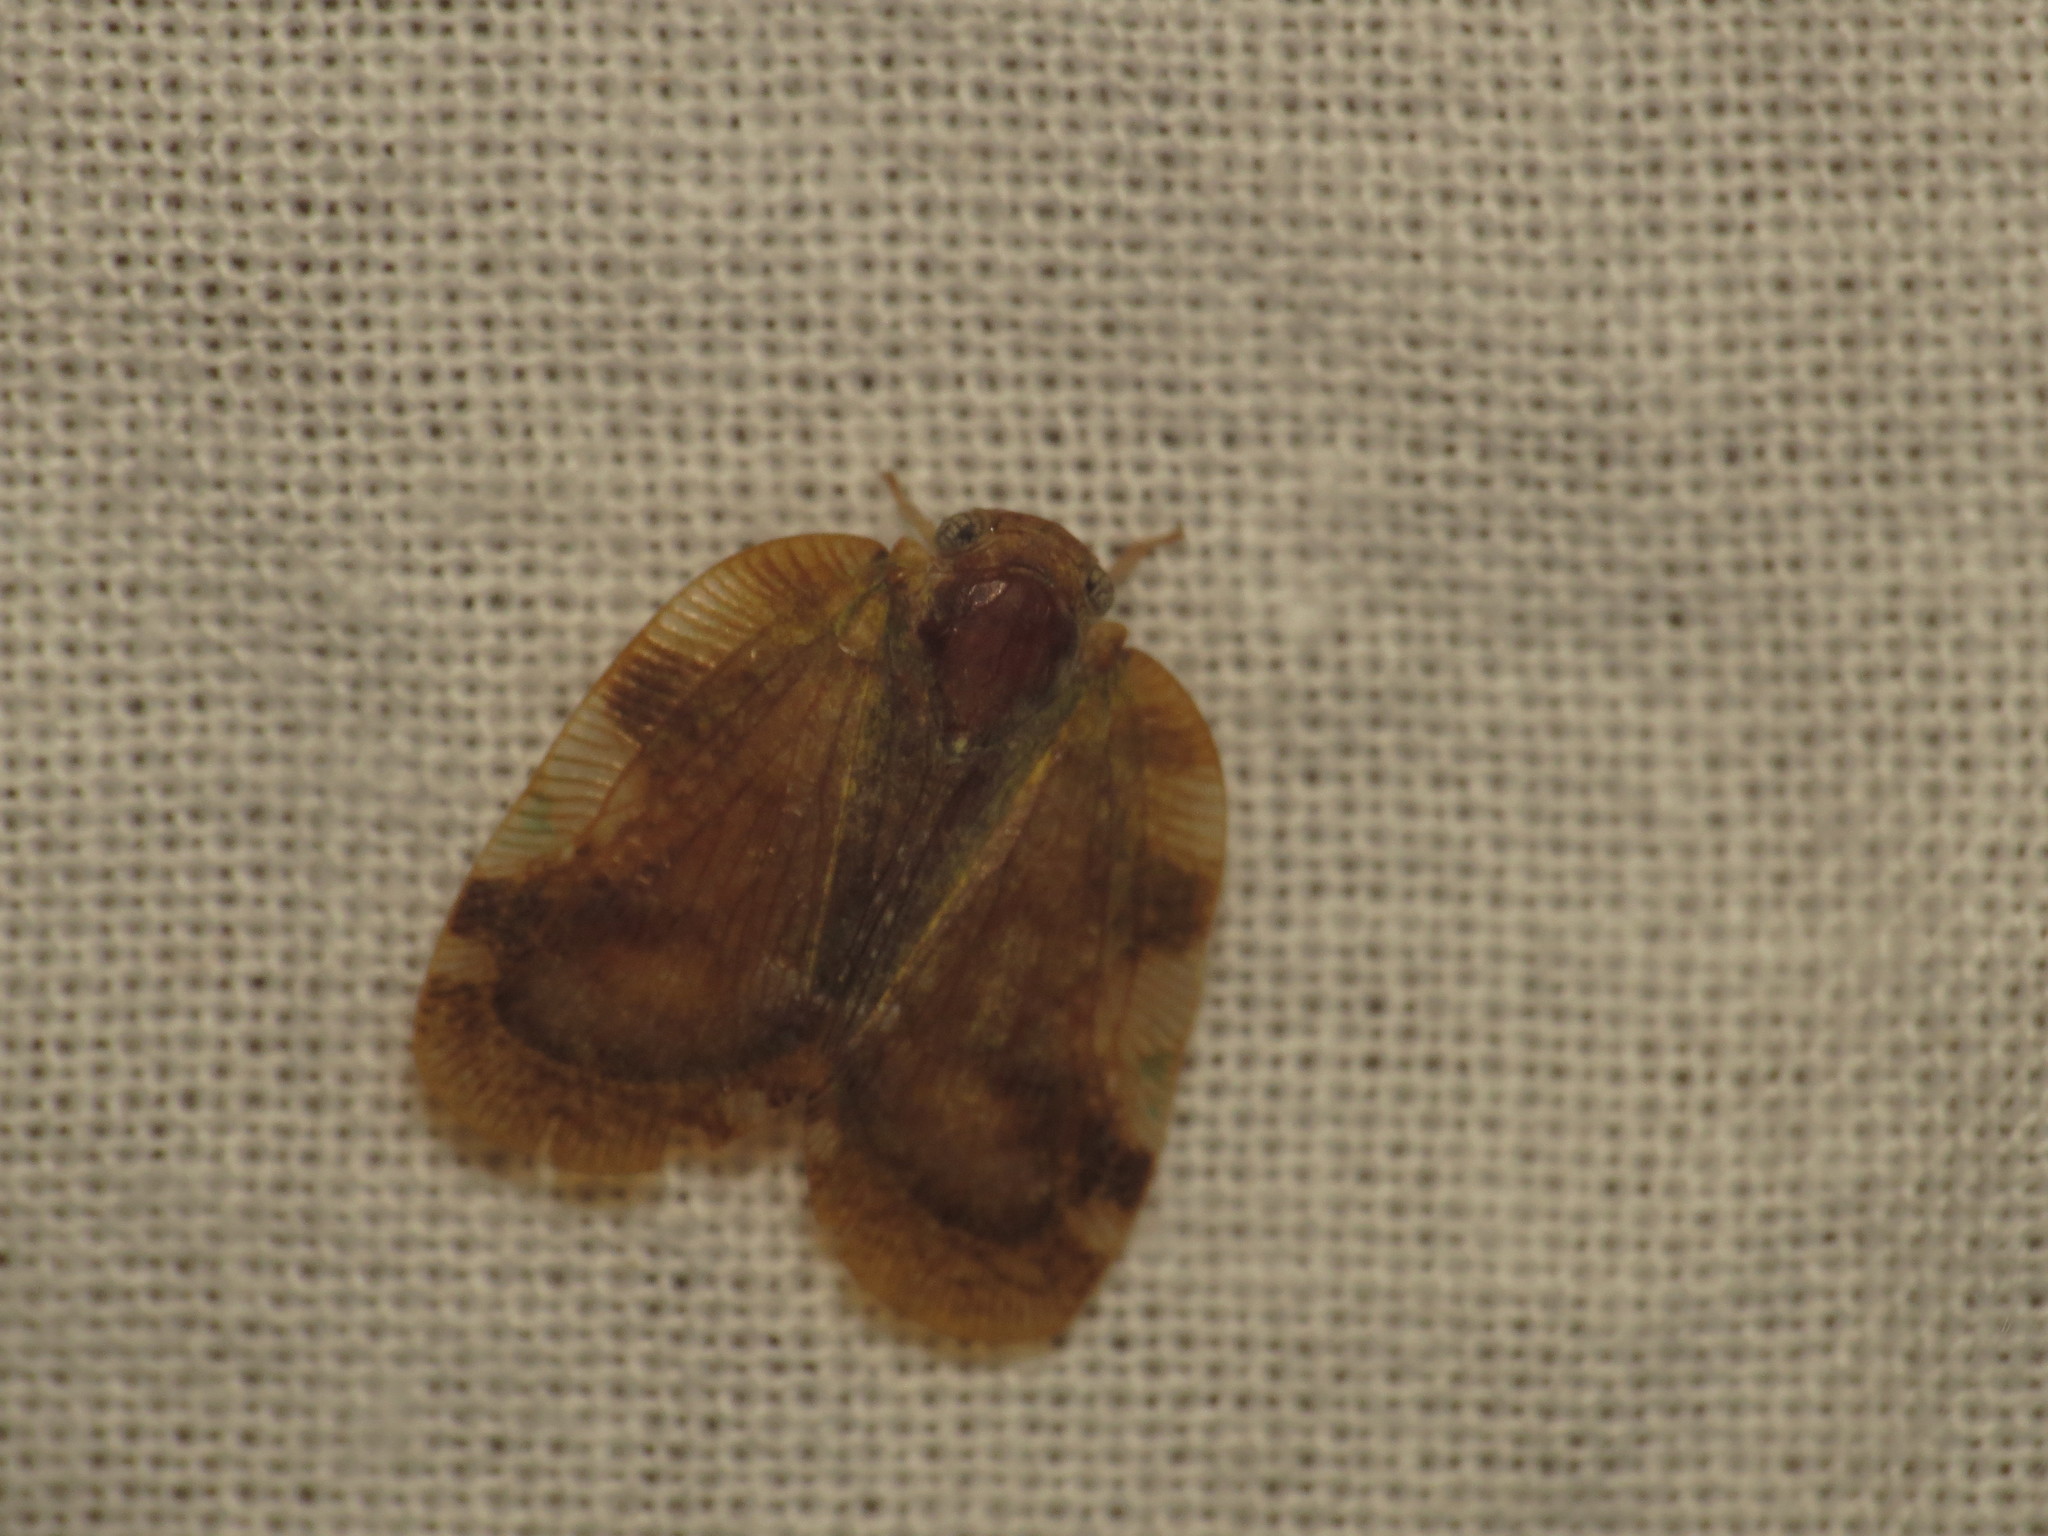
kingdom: Animalia
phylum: Arthropoda
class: Insecta
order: Hemiptera
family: Ricaniidae
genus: Aprivesa
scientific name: Aprivesa exuta
